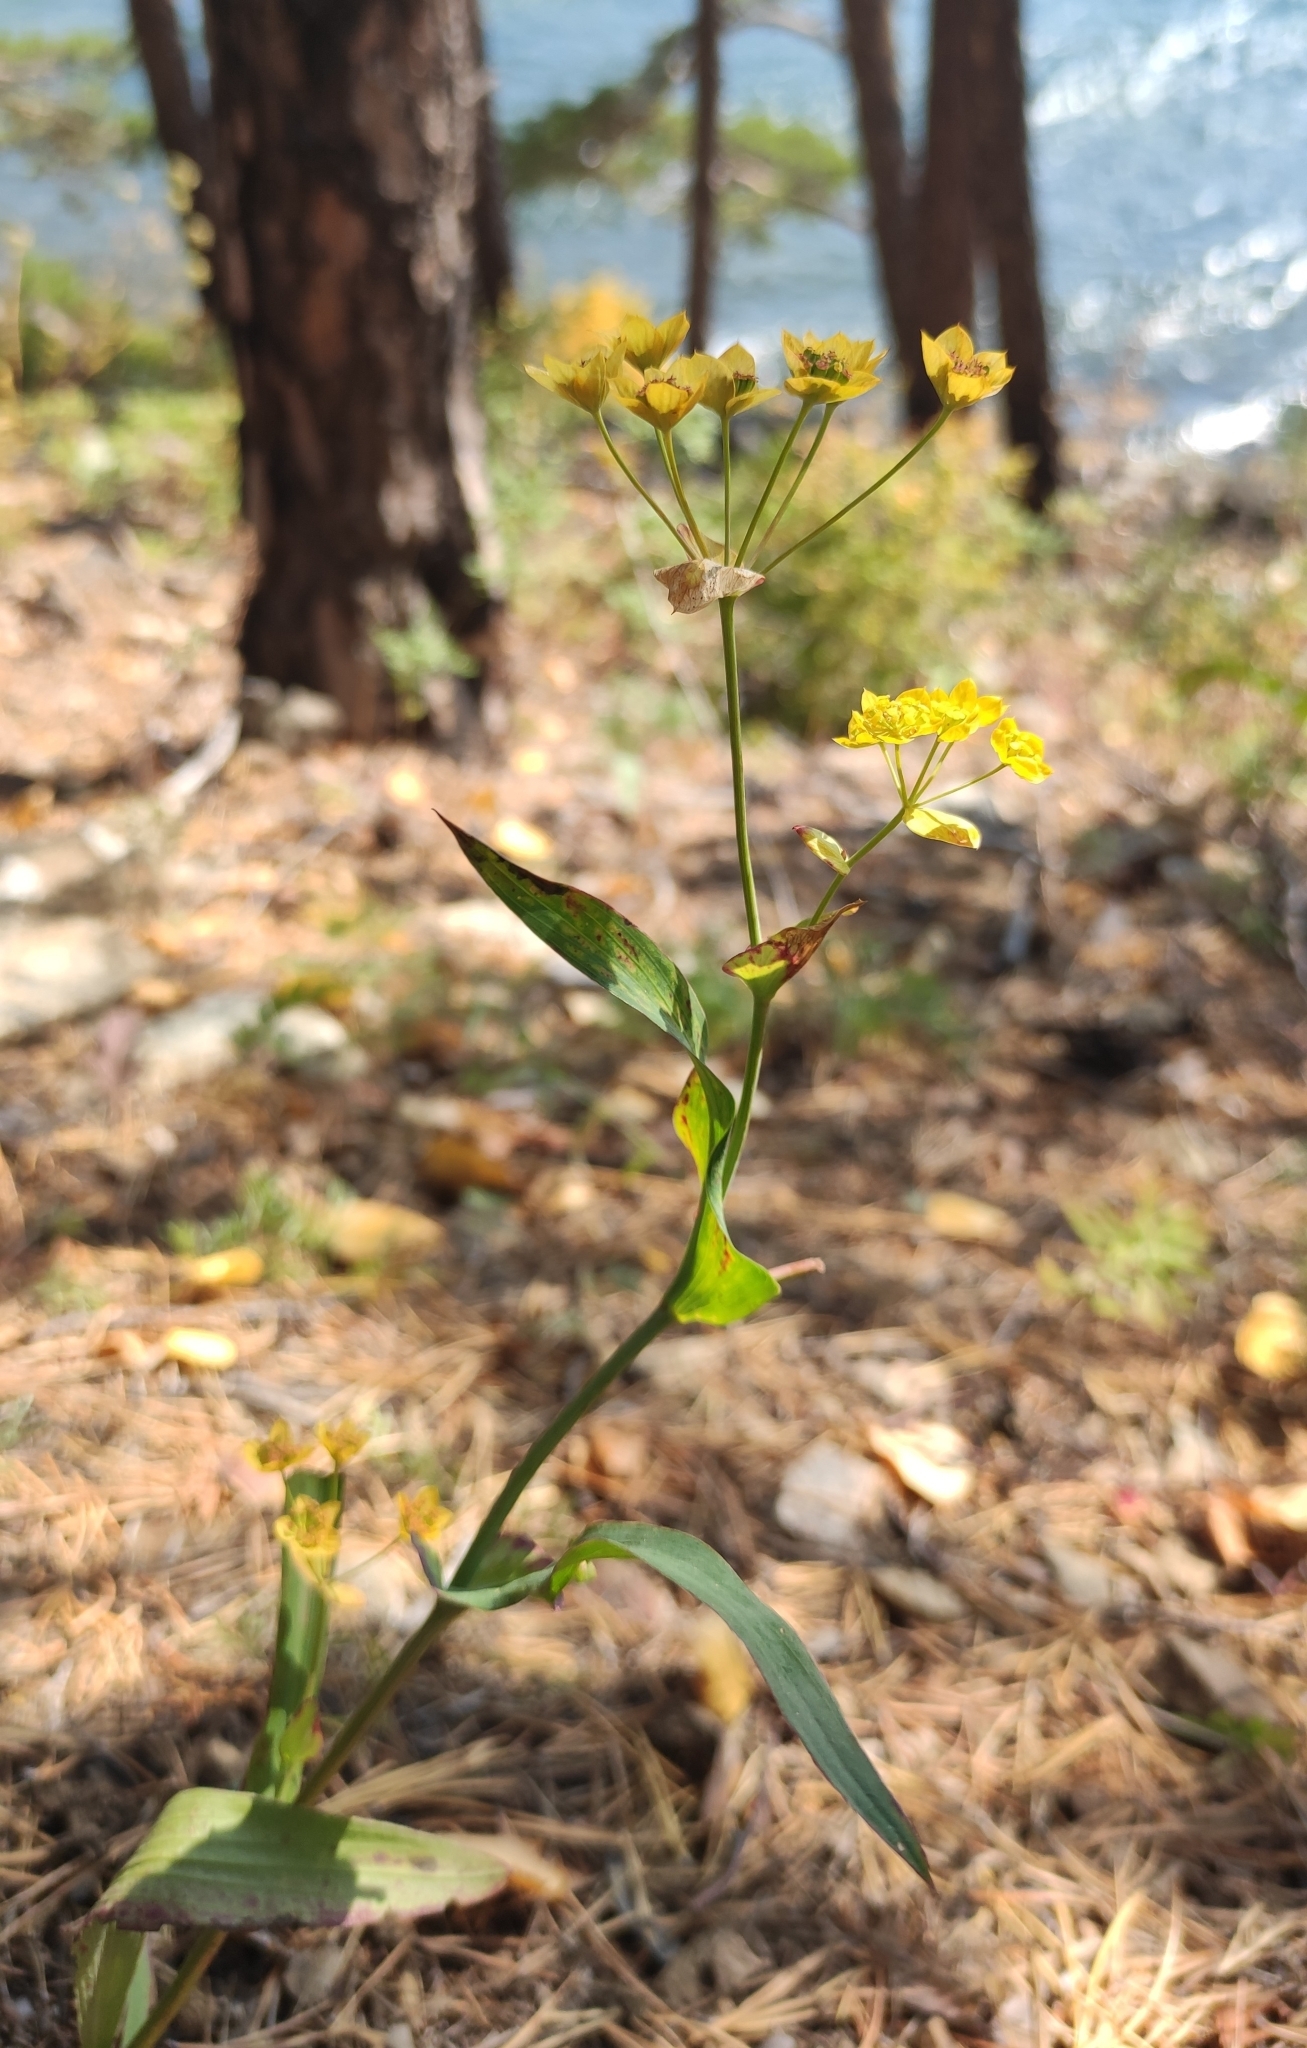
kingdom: Plantae
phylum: Tracheophyta
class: Magnoliopsida
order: Apiales
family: Apiaceae
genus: Bupleurum
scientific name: Bupleurum multinerve
